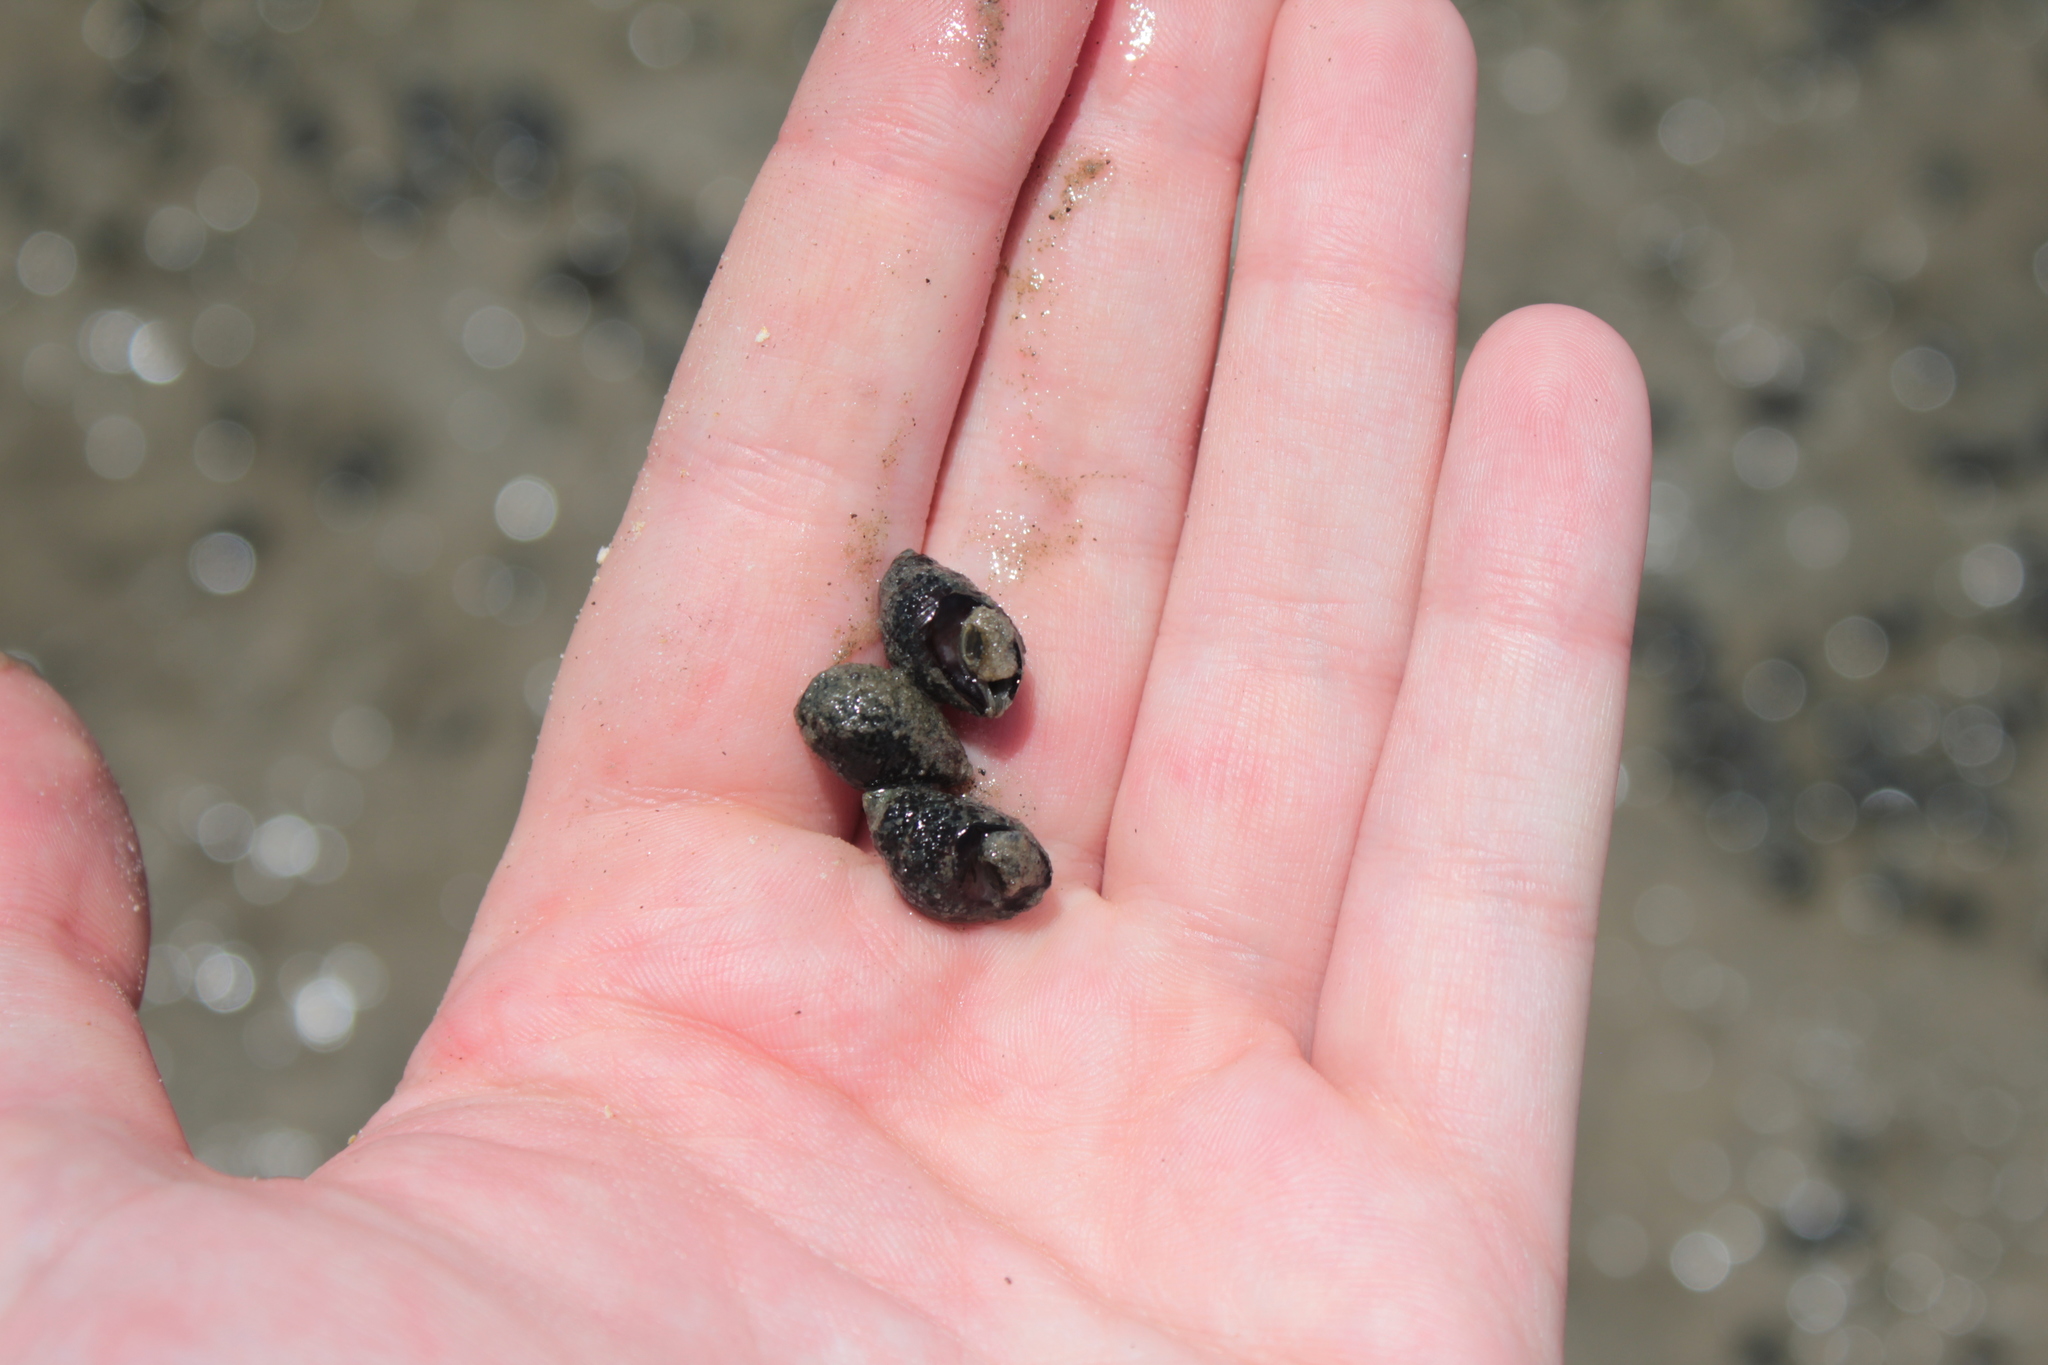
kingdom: Animalia
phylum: Mollusca
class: Gastropoda
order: Neogastropoda
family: Nassariidae
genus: Ilyanassa
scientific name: Ilyanassa obsoleta
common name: Eastern mudsnail
